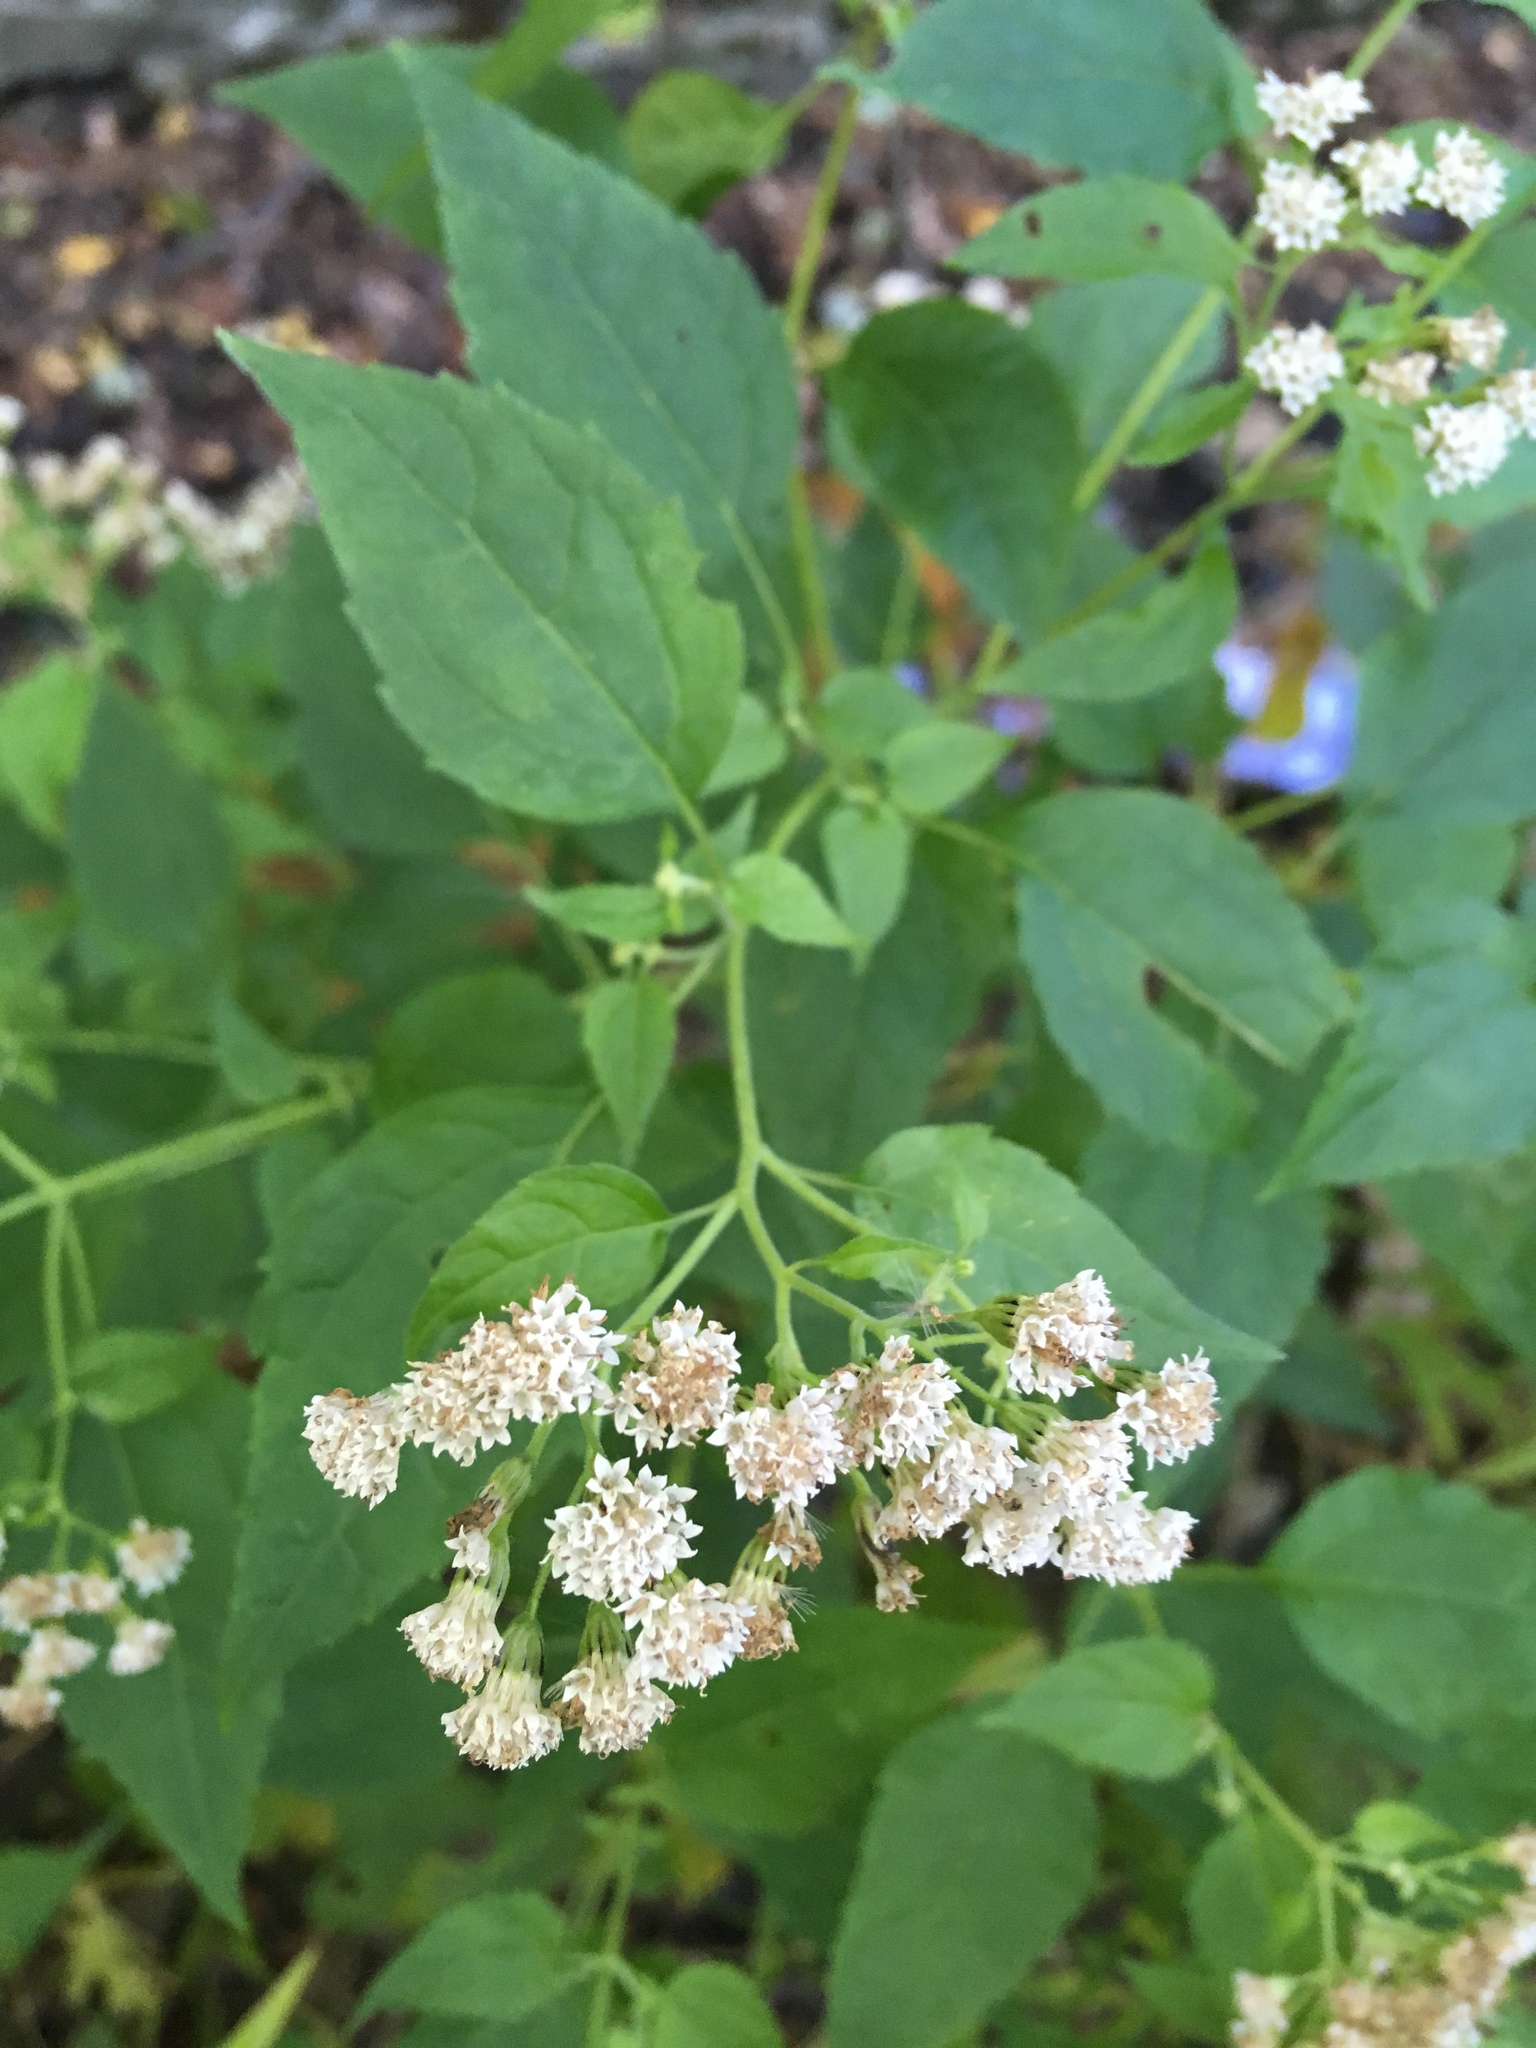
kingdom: Plantae
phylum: Tracheophyta
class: Magnoliopsida
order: Asterales
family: Asteraceae
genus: Ageratina
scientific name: Ageratina altissima
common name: White snakeroot
